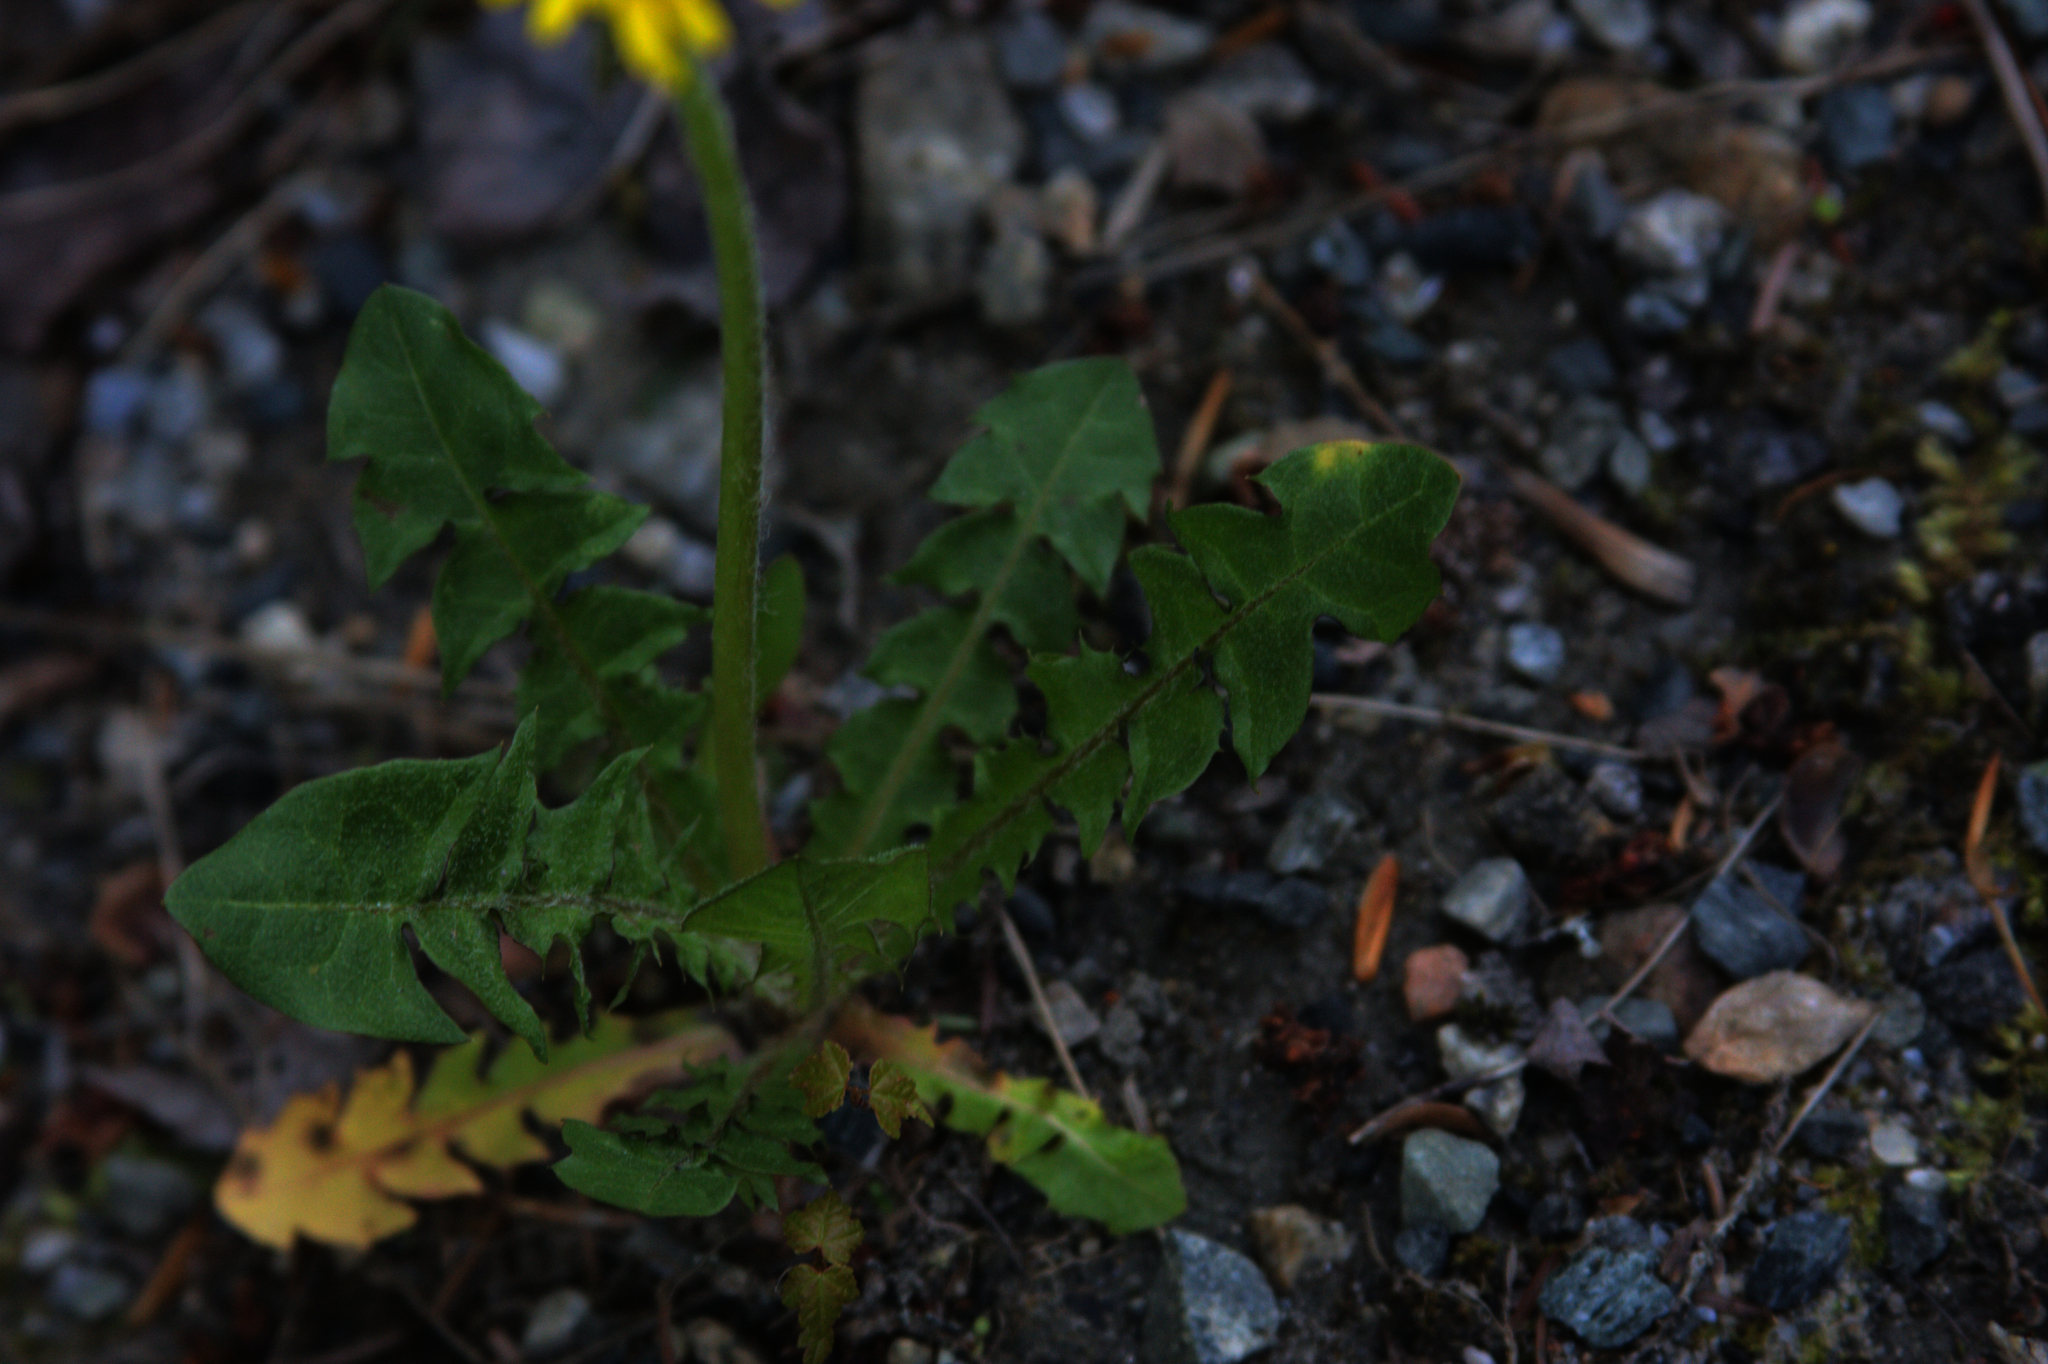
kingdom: Plantae
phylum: Tracheophyta
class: Magnoliopsida
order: Asterales
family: Asteraceae
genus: Taraxacum
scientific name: Taraxacum officinale
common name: Common dandelion
